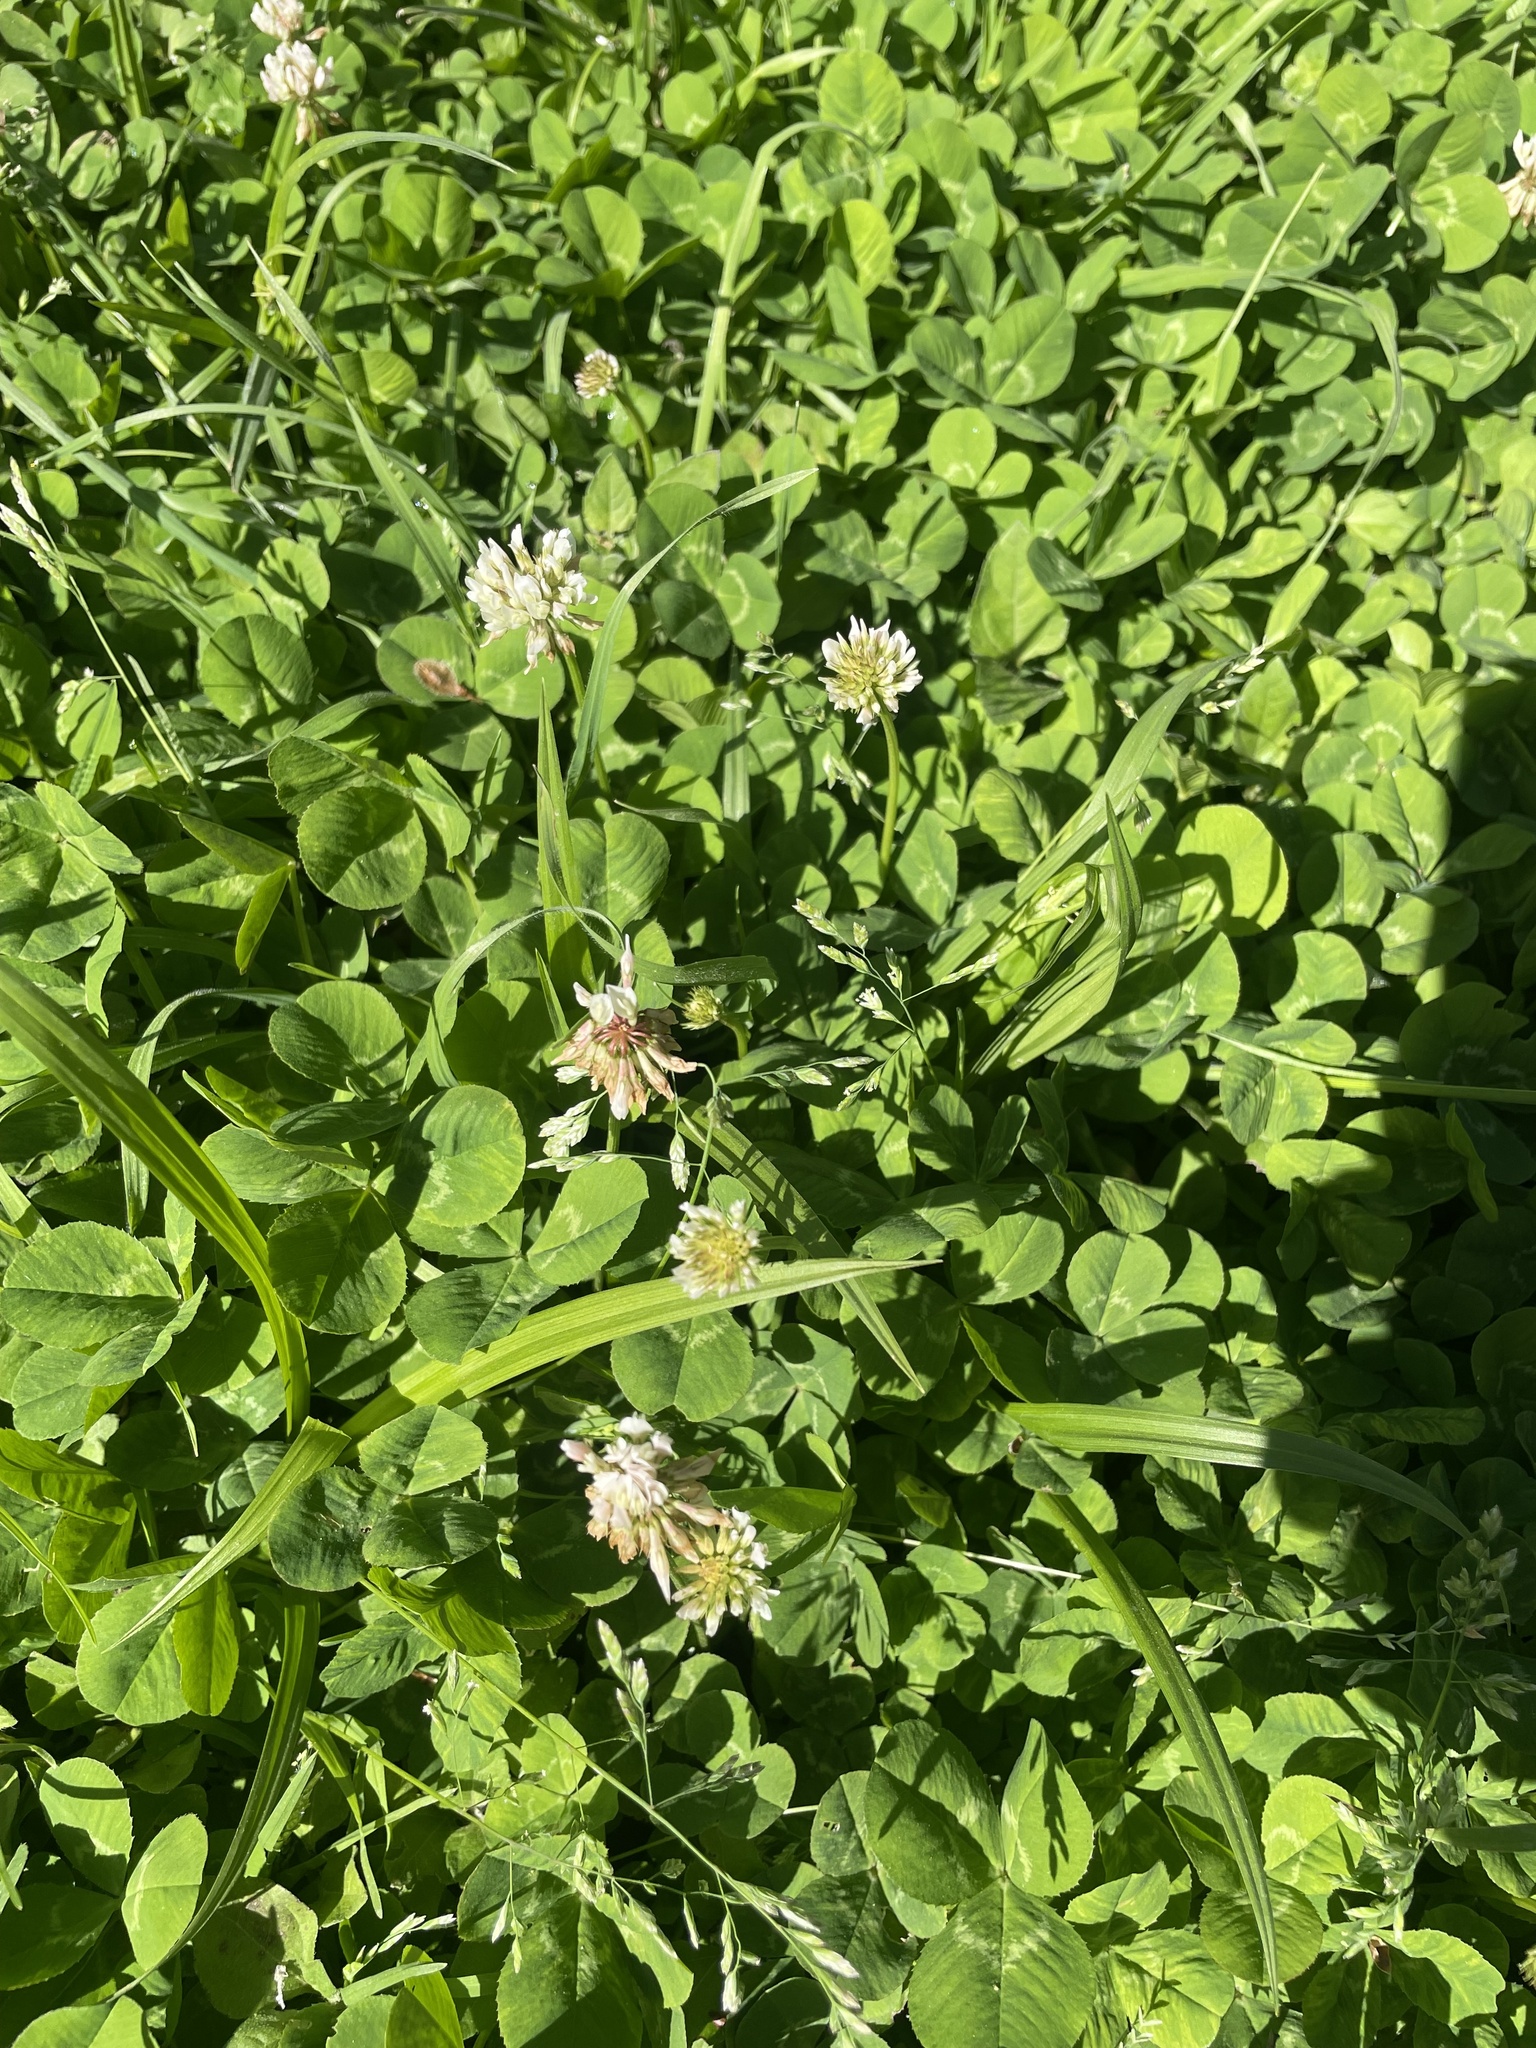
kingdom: Plantae
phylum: Tracheophyta
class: Magnoliopsida
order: Fabales
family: Fabaceae
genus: Trifolium
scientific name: Trifolium repens
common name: White clover
